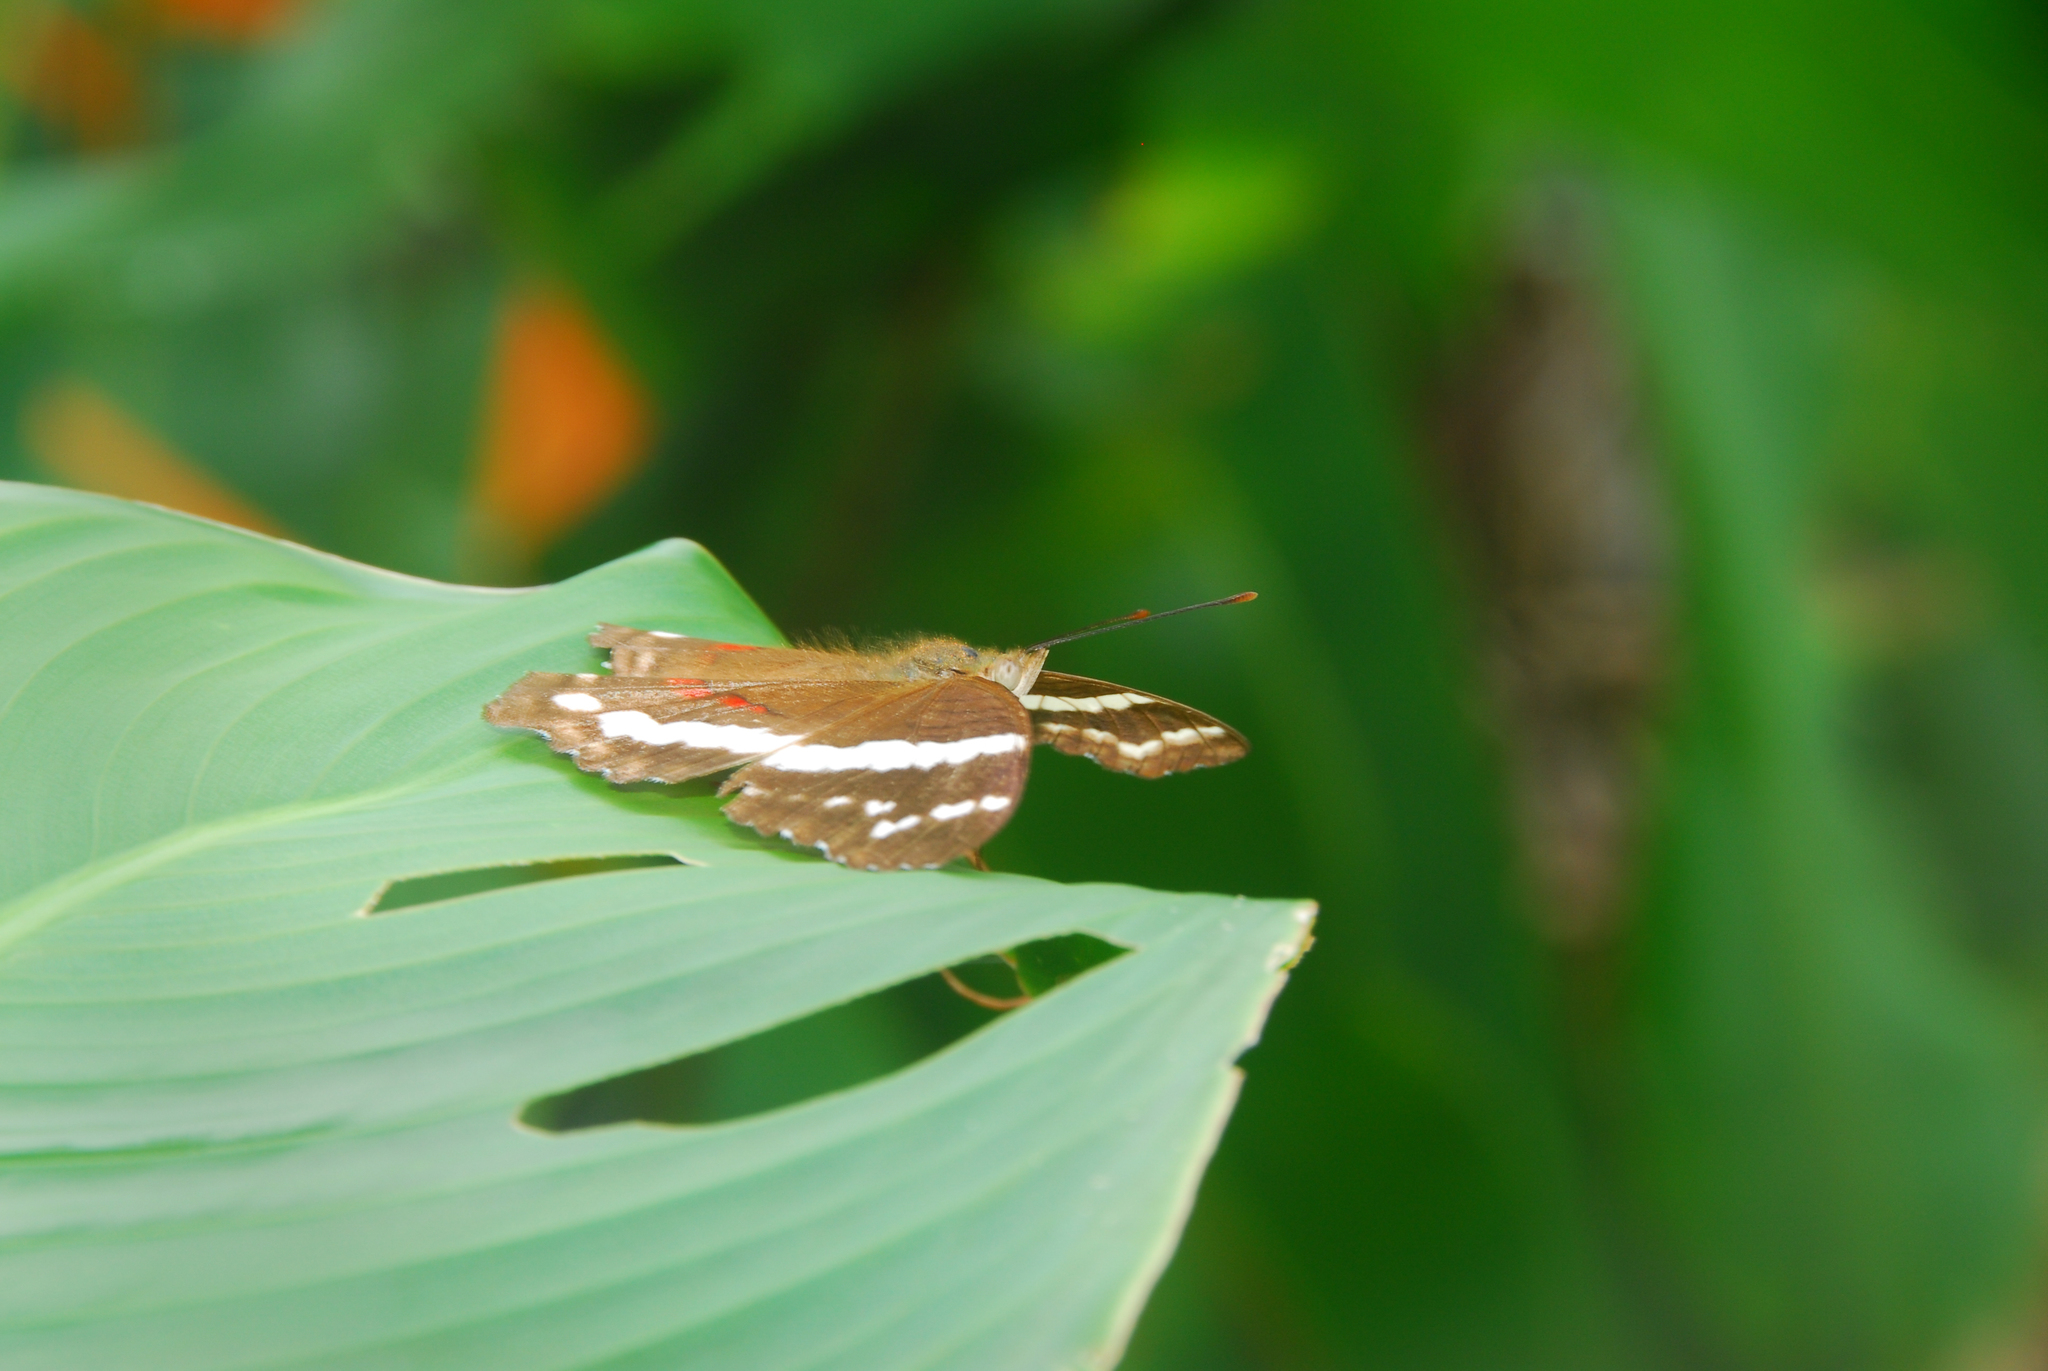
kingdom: Animalia
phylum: Arthropoda
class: Insecta
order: Lepidoptera
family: Nymphalidae
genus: Anartia
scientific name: Anartia fatima
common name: Banded peacock
